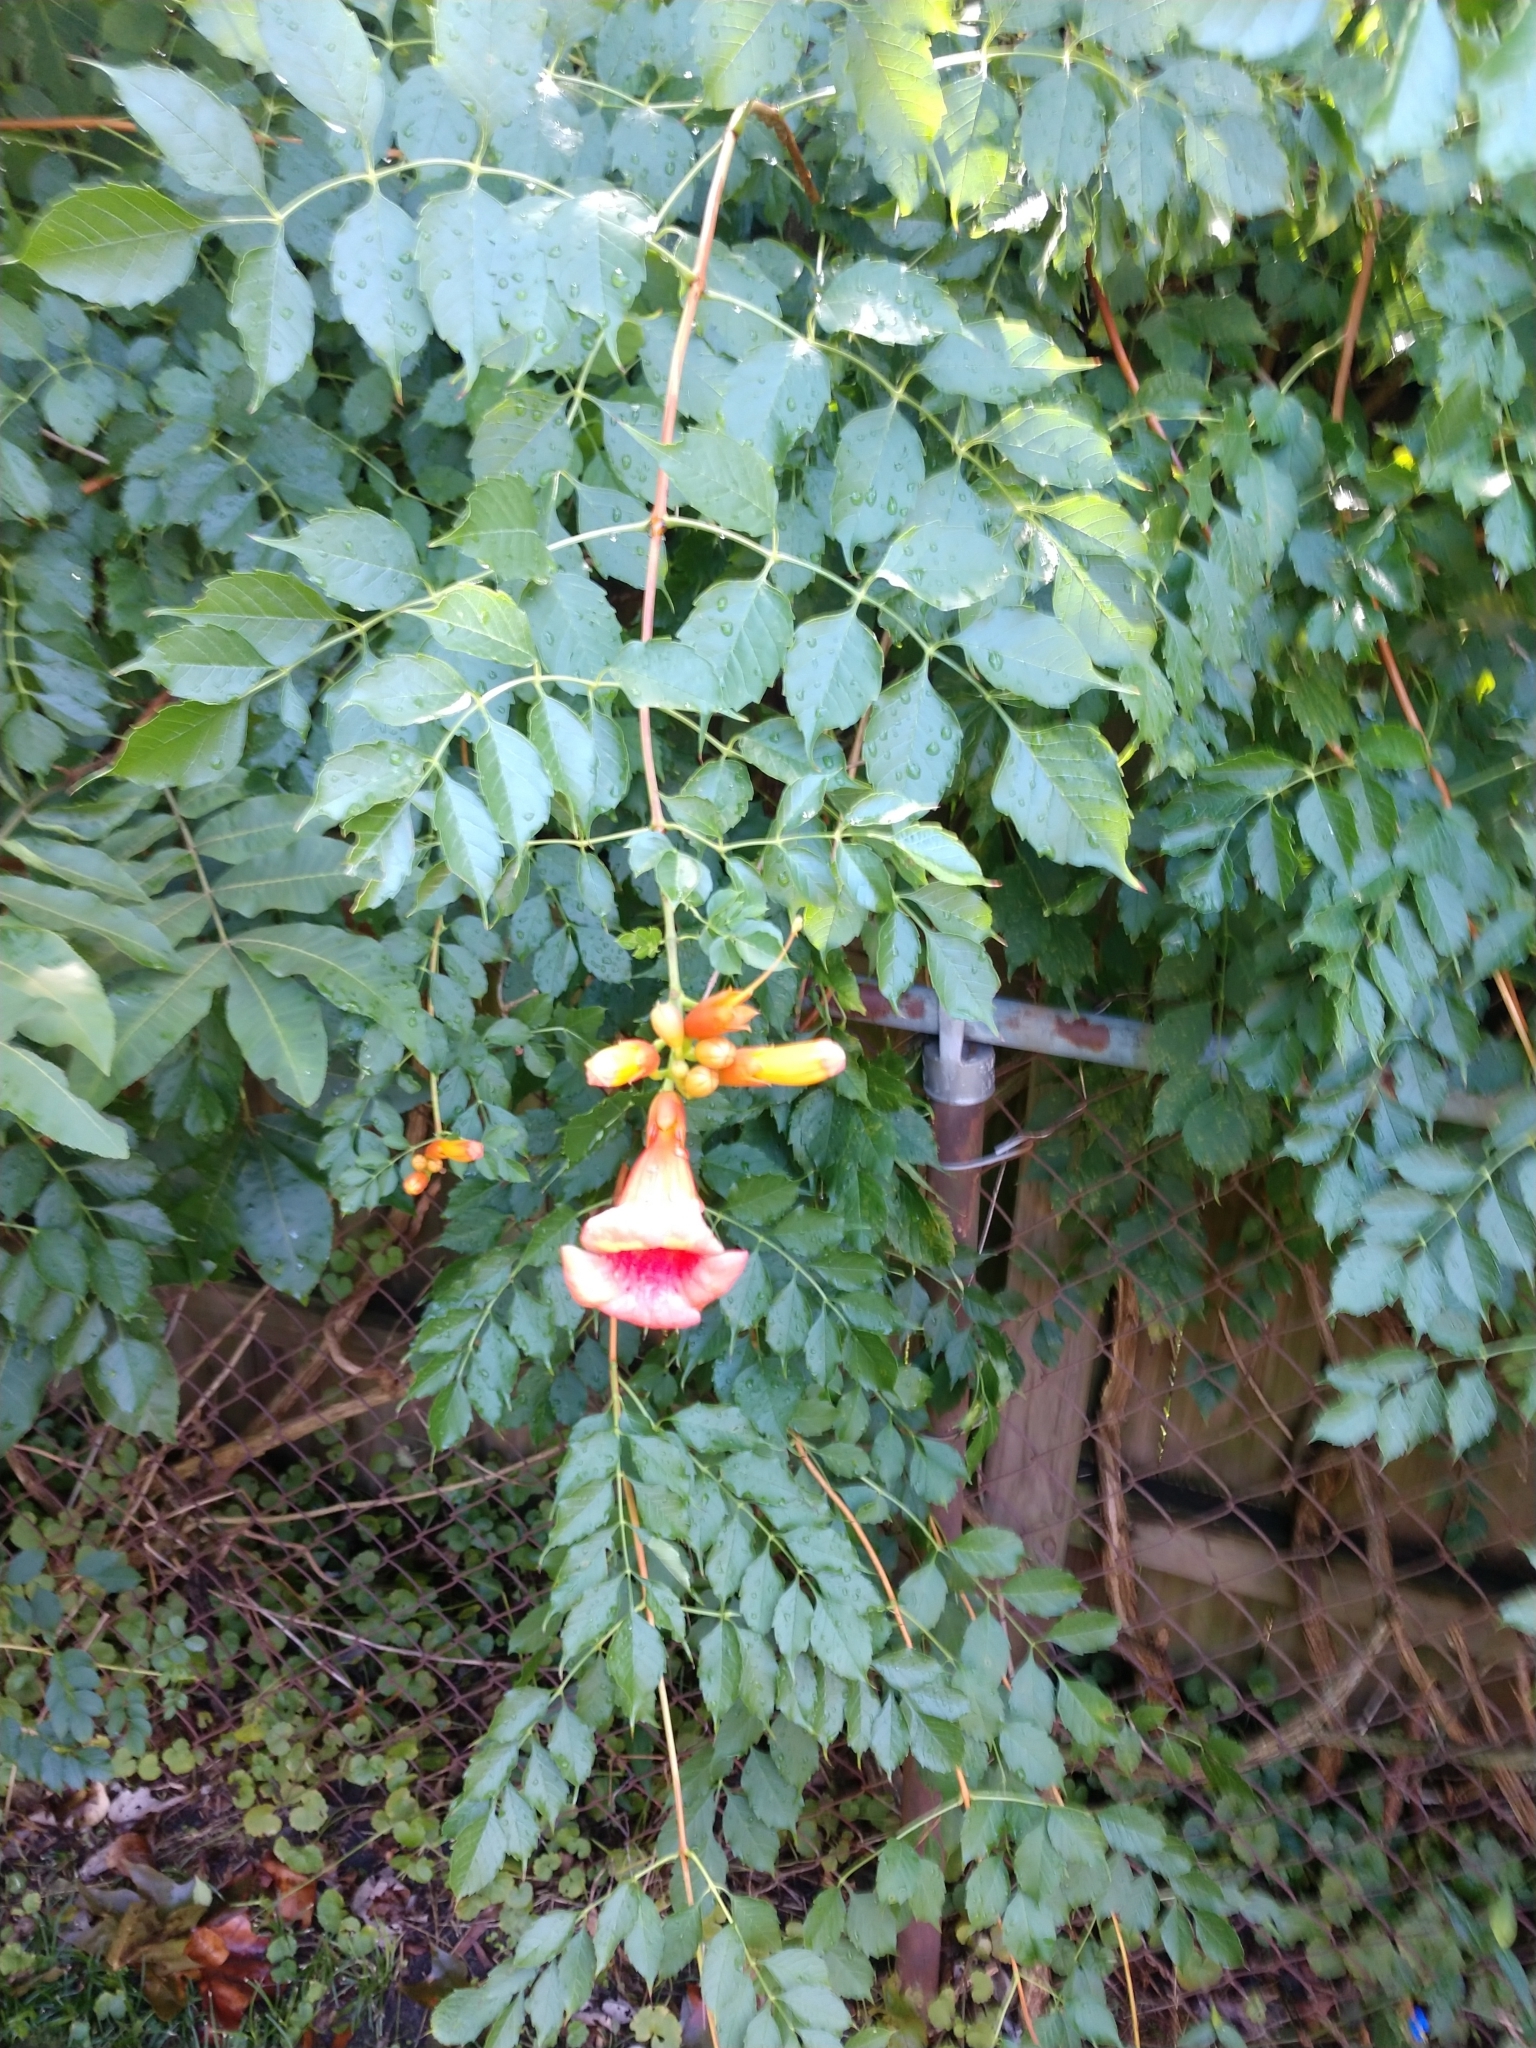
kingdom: Plantae
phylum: Tracheophyta
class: Magnoliopsida
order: Lamiales
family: Bignoniaceae
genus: Campsis
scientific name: Campsis radicans
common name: Trumpet-creeper
